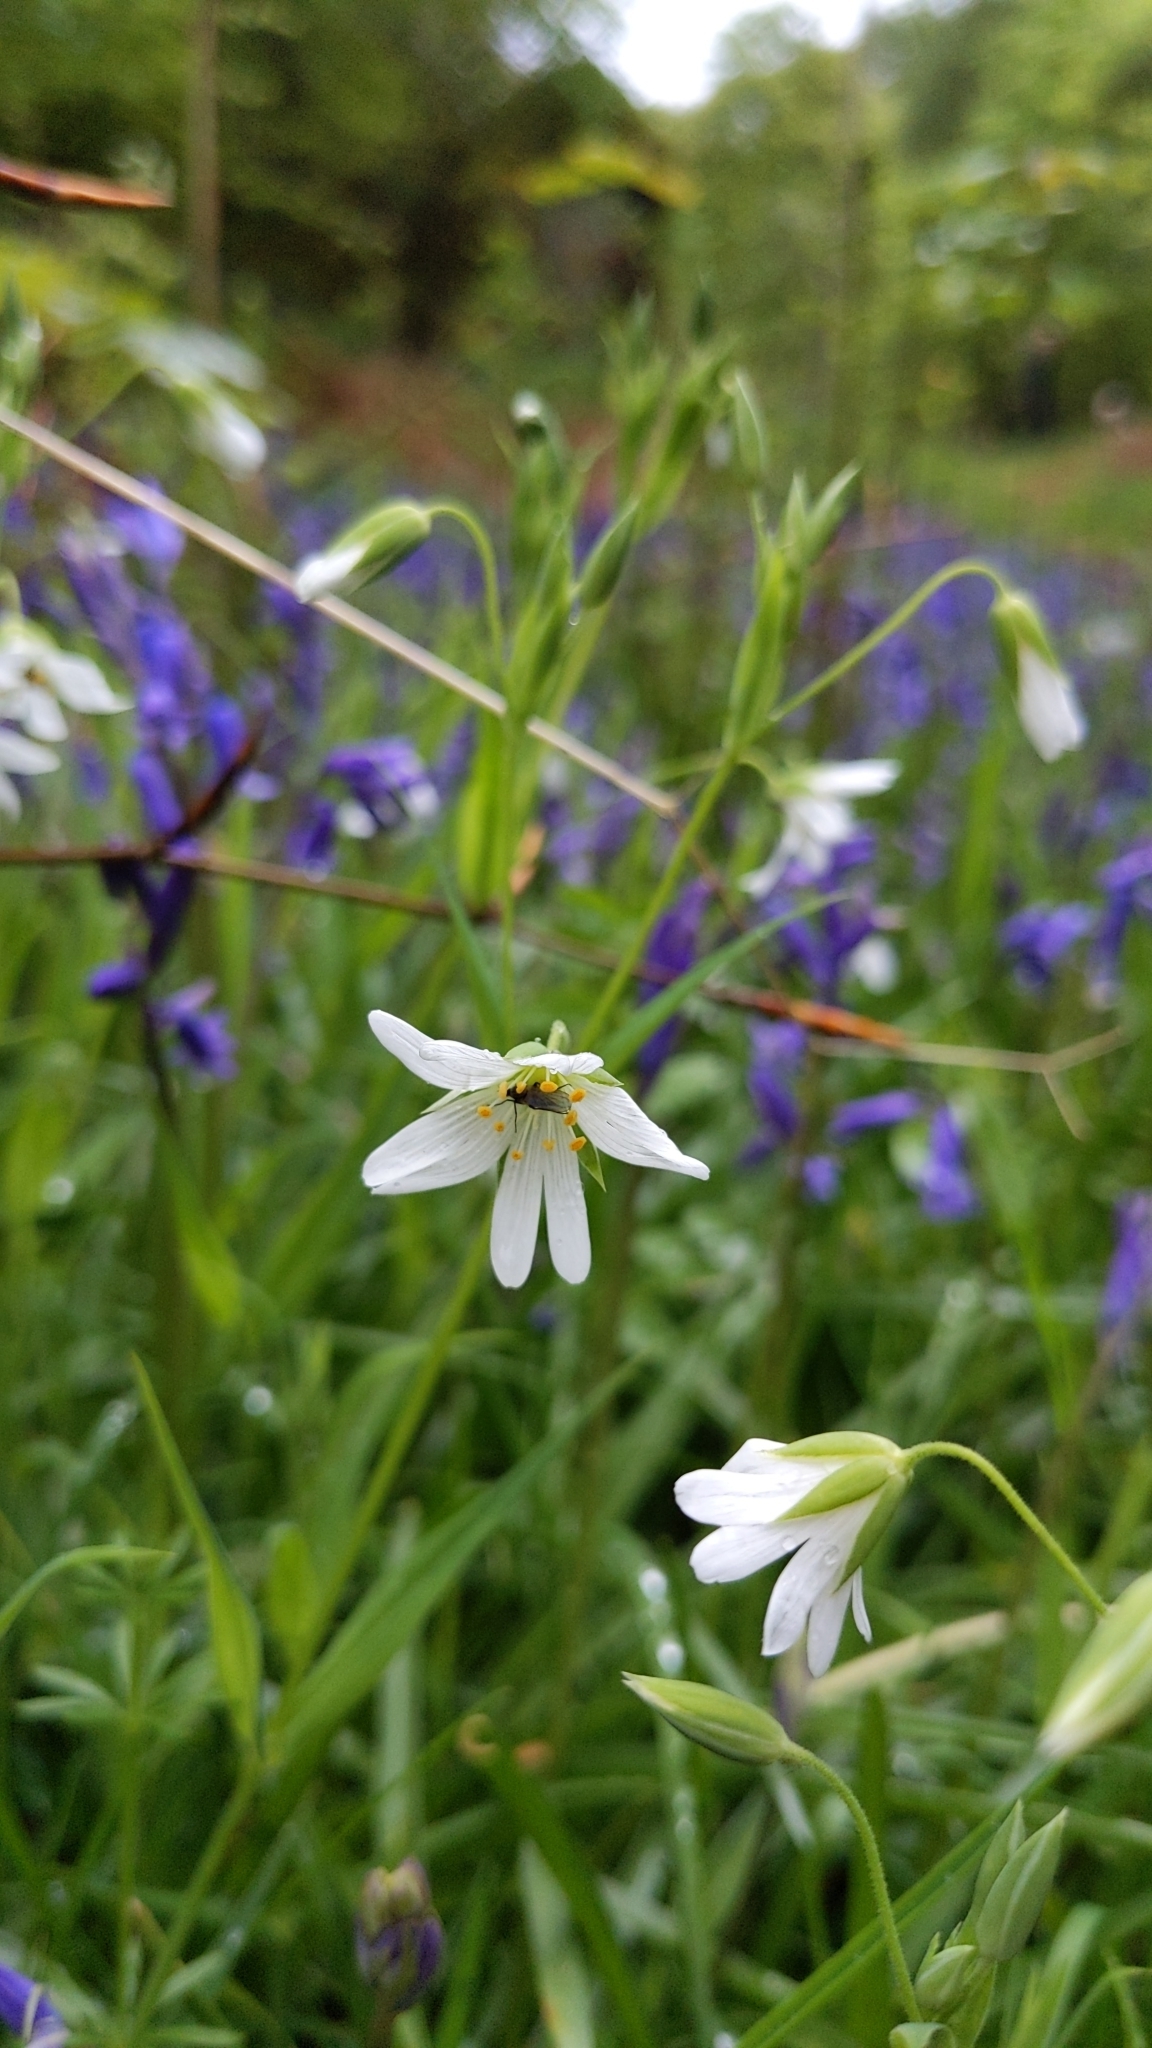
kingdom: Plantae
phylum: Tracheophyta
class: Magnoliopsida
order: Caryophyllales
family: Caryophyllaceae
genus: Rabelera
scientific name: Rabelera holostea
